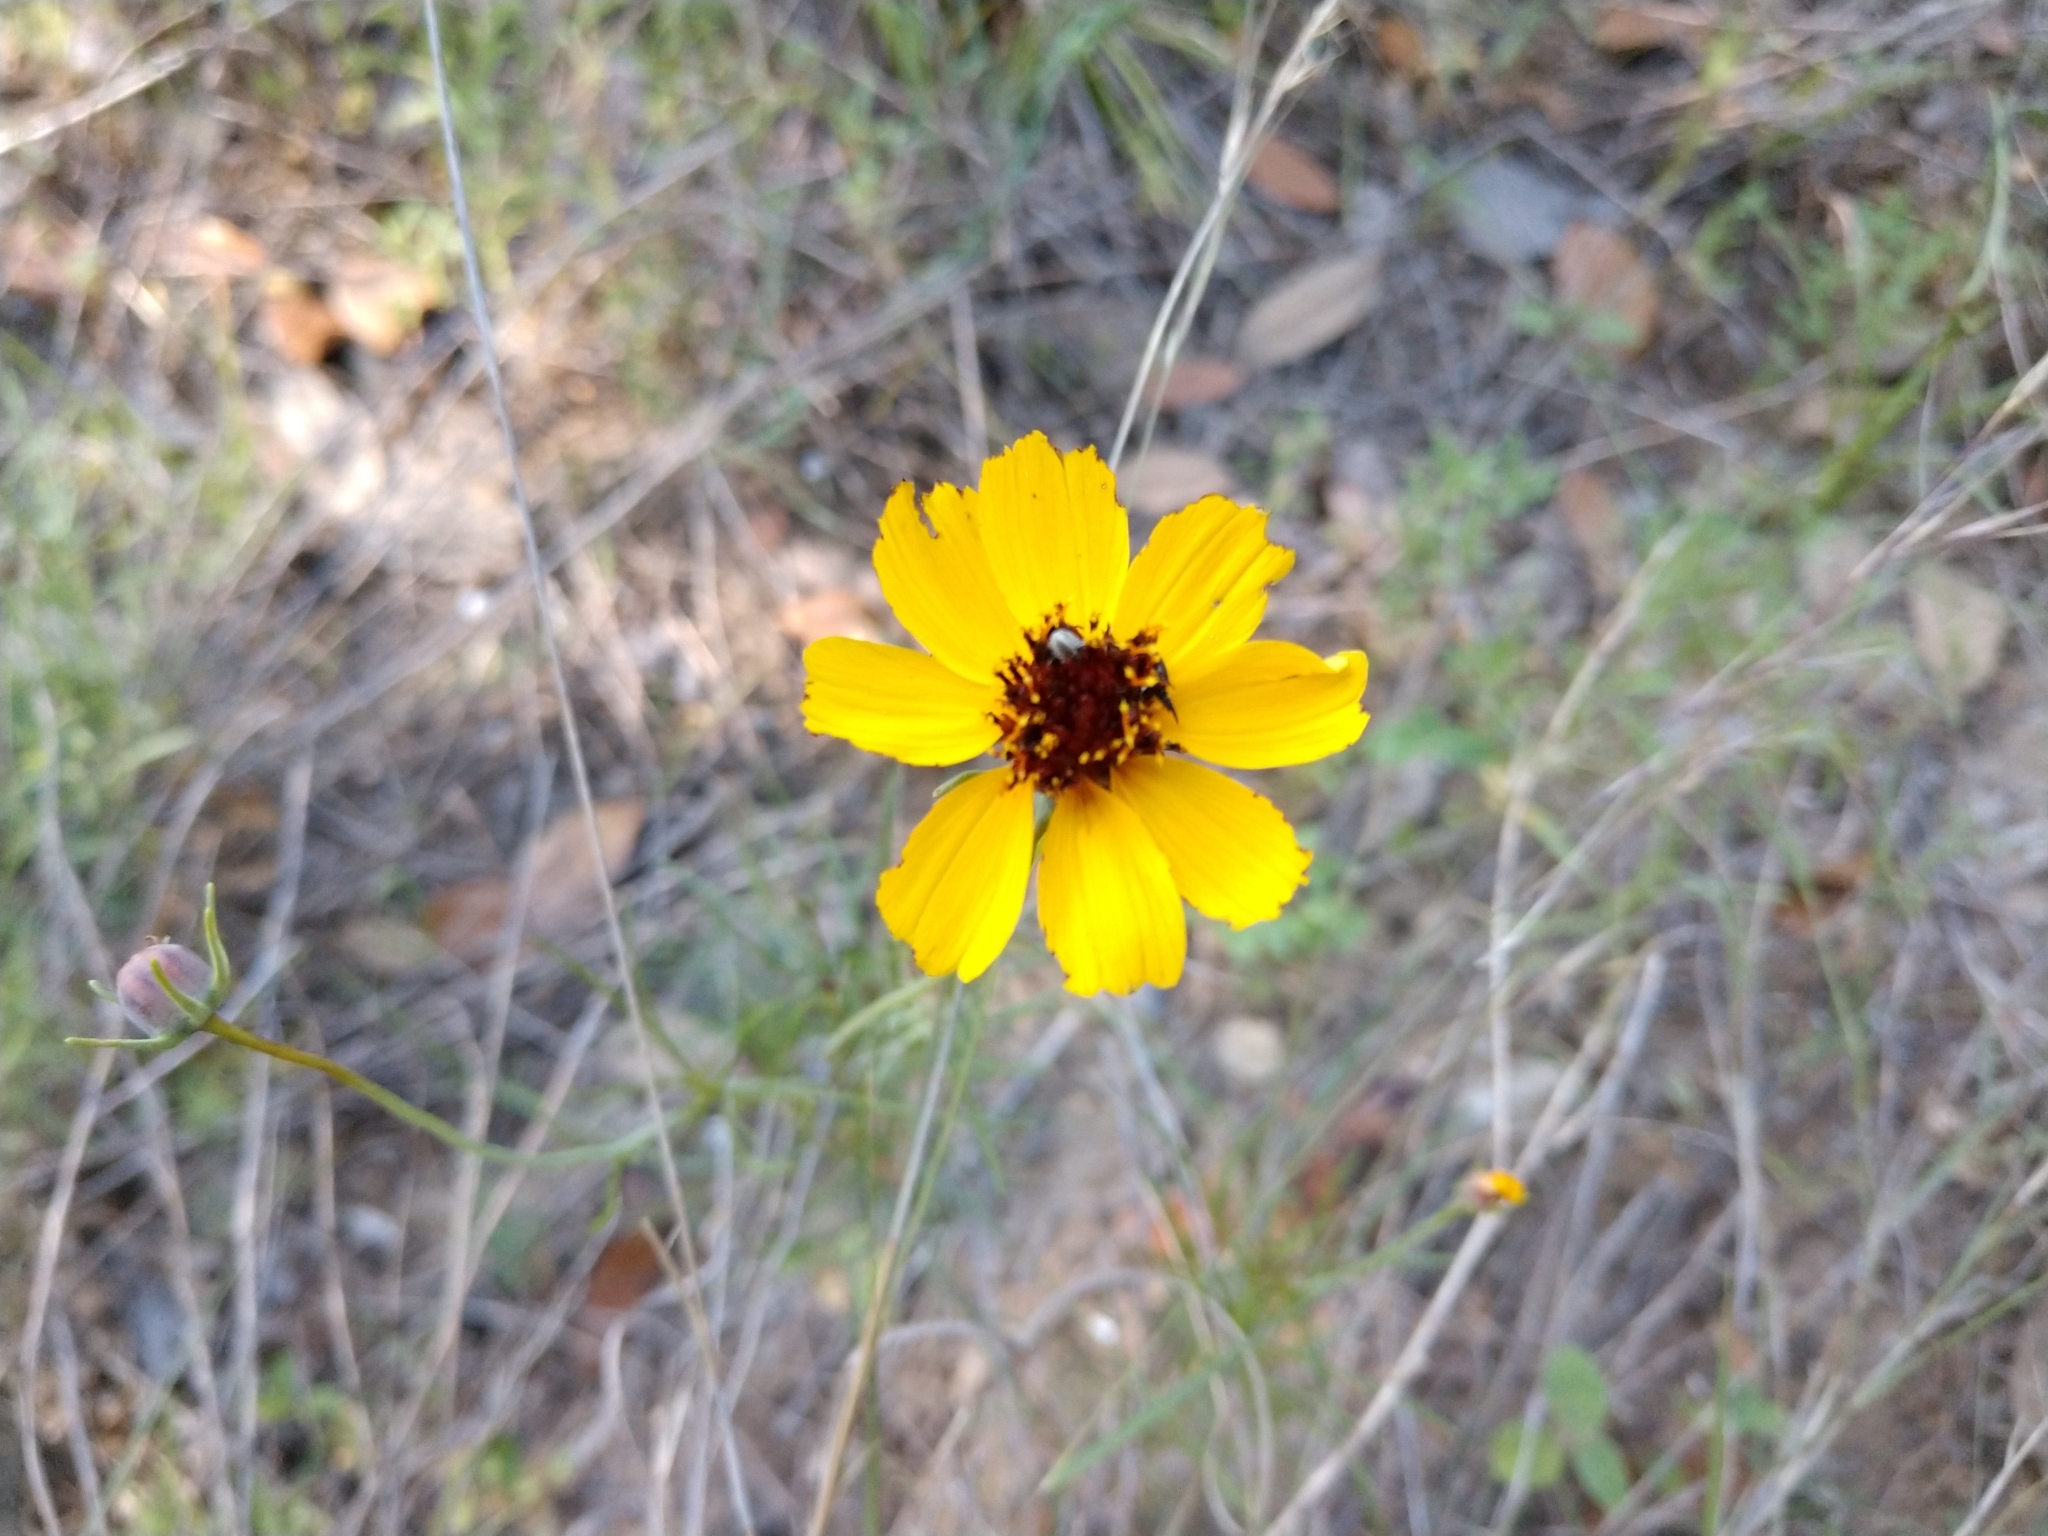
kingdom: Plantae
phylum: Tracheophyta
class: Magnoliopsida
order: Asterales
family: Asteraceae
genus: Thelesperma
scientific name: Thelesperma filifolium
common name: Stiff greenthread
